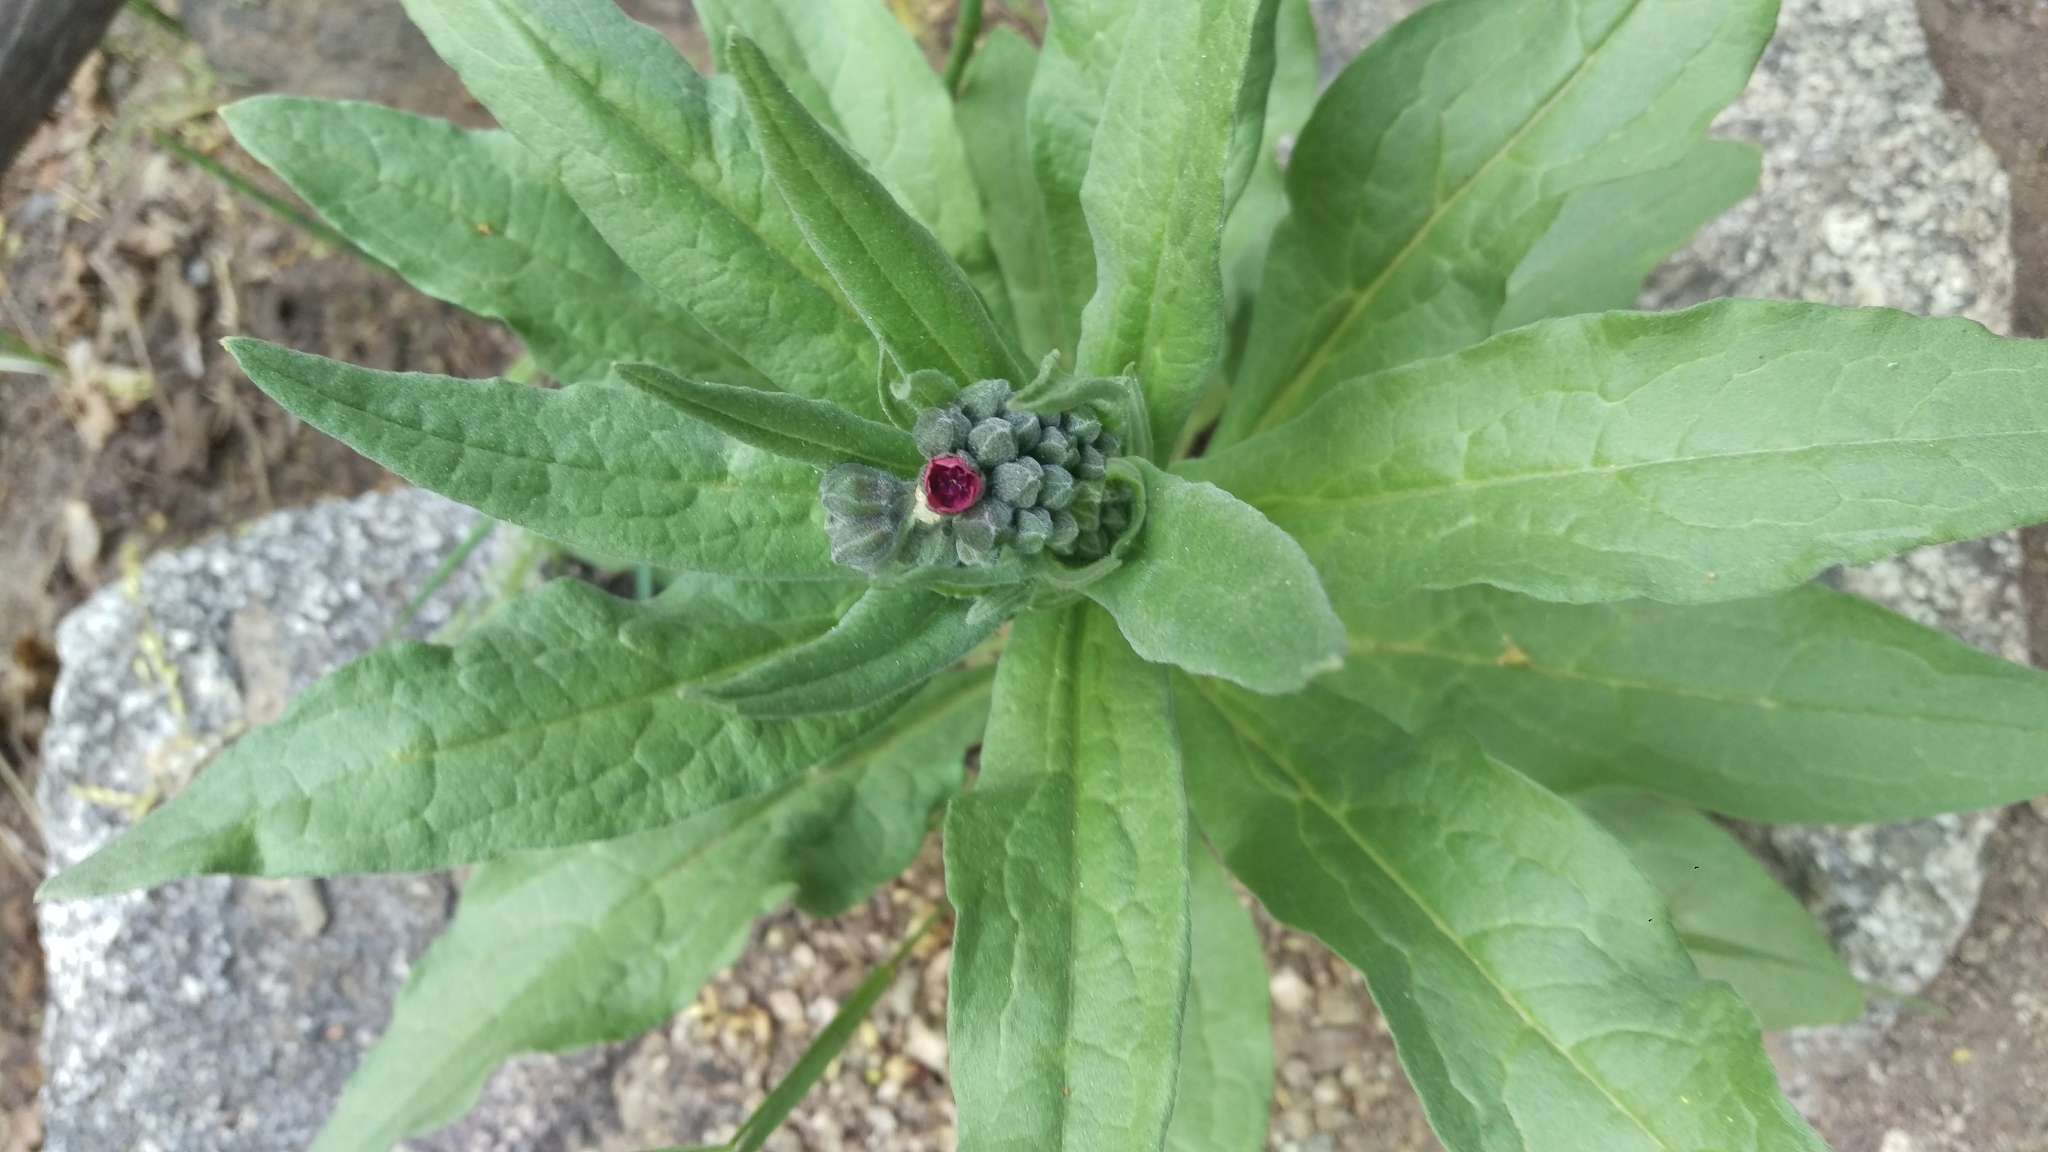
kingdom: Plantae
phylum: Tracheophyta
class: Magnoliopsida
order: Boraginales
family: Boraginaceae
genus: Cynoglossum
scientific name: Cynoglossum officinale
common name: Hound's-tongue
